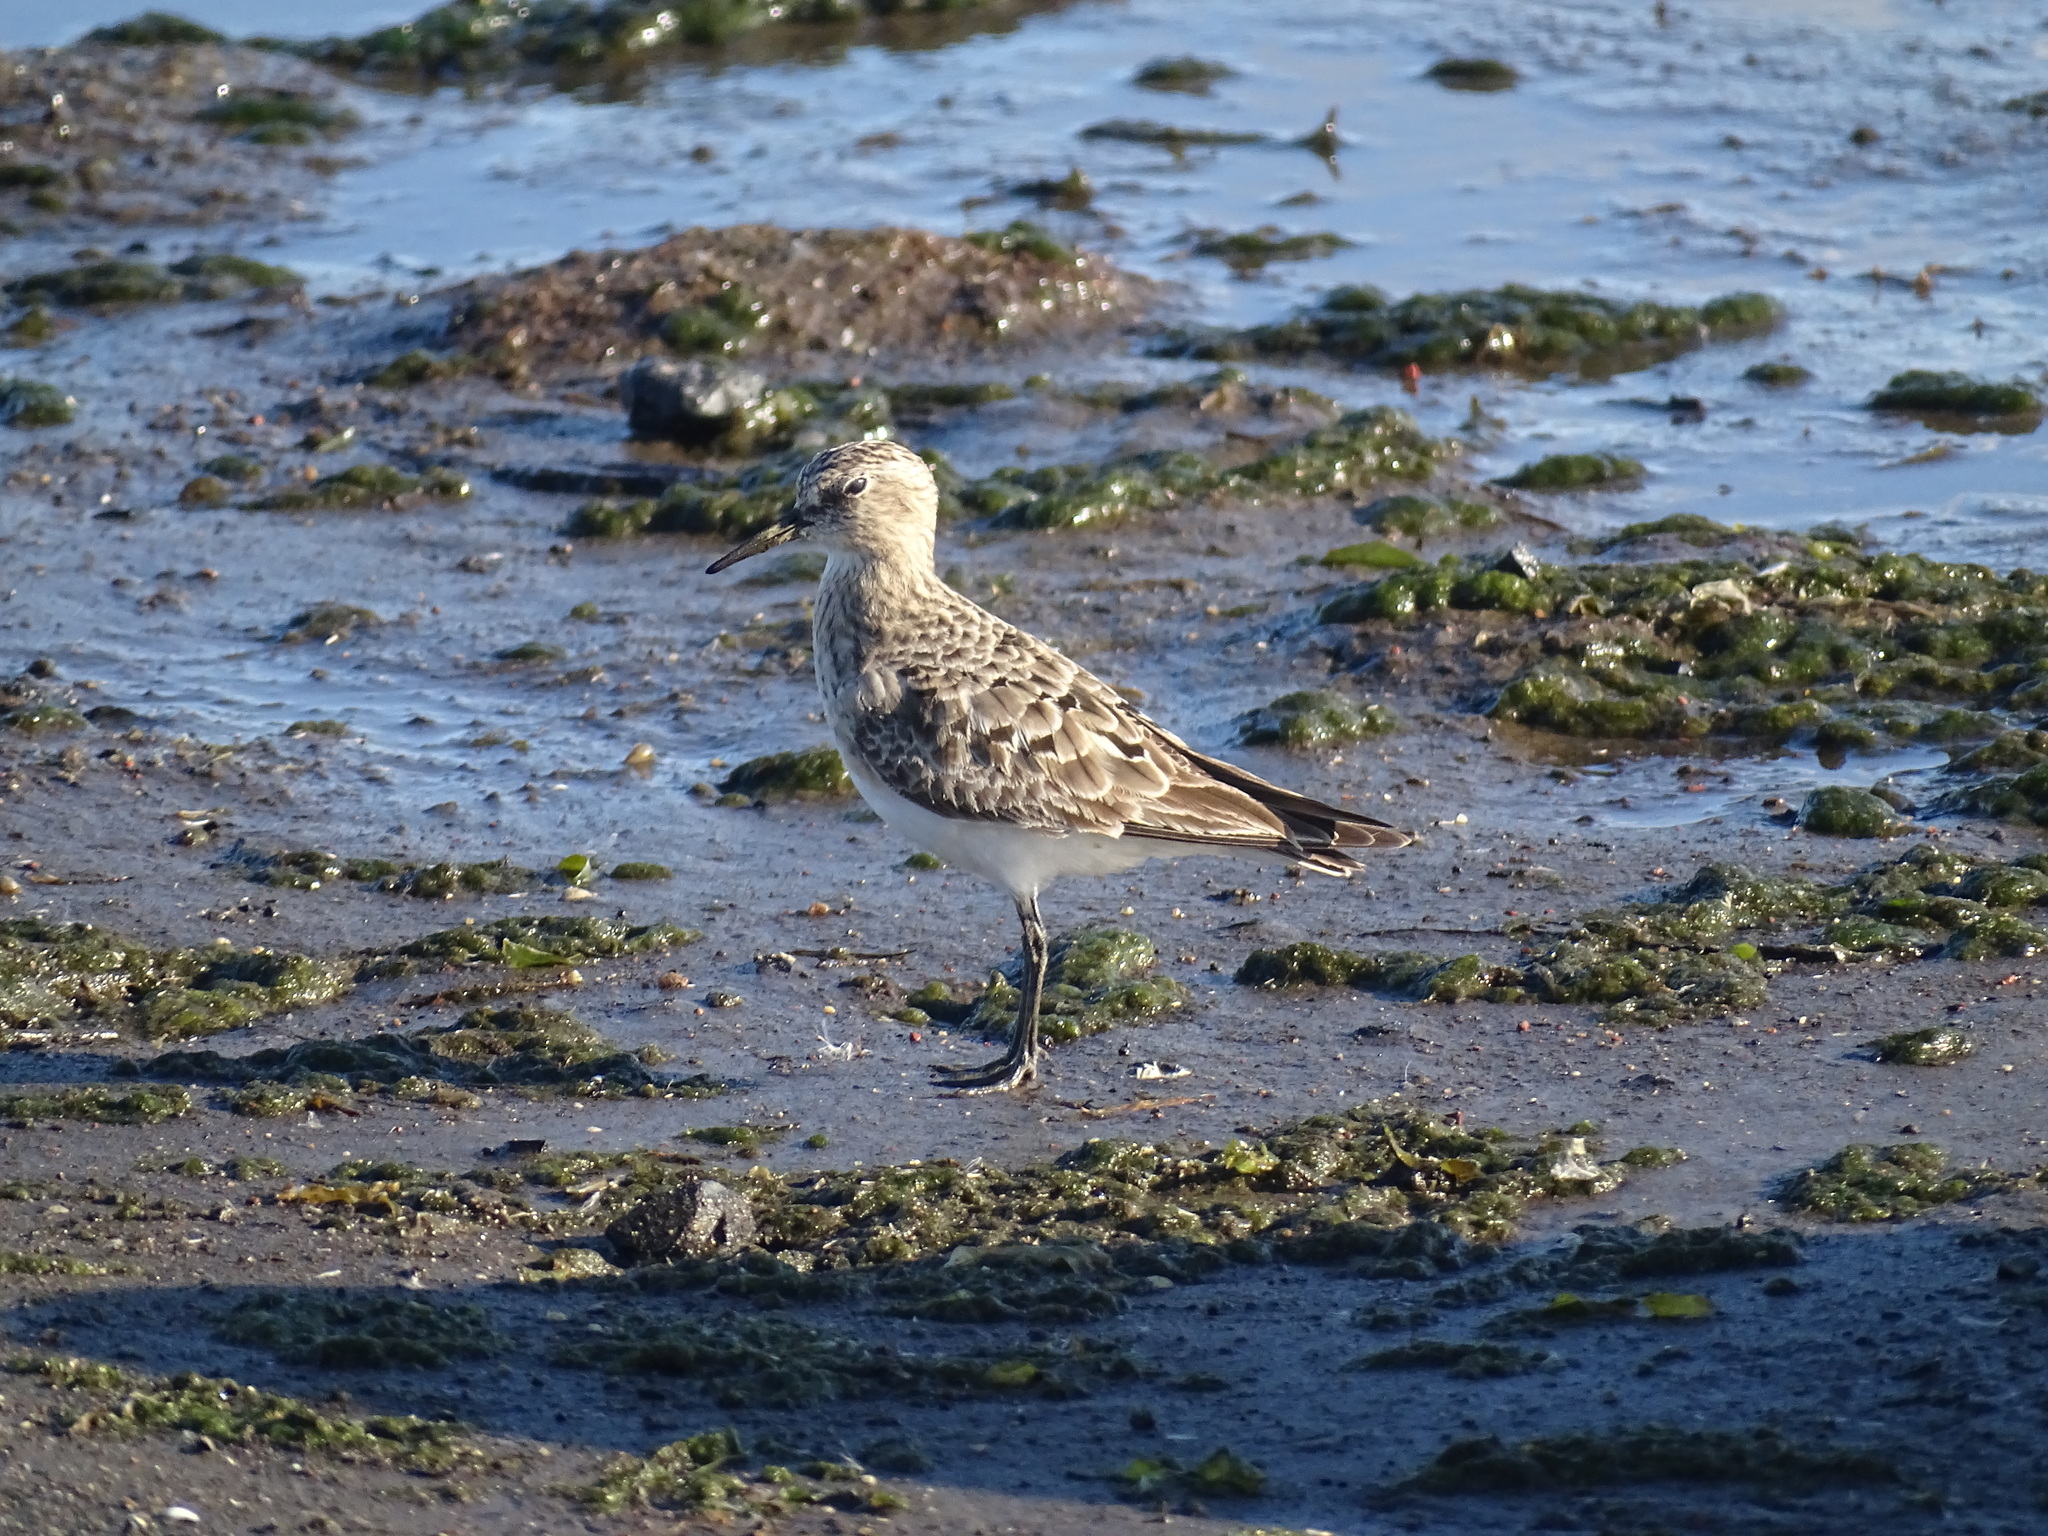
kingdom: Animalia
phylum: Chordata
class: Aves
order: Charadriiformes
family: Scolopacidae
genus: Calidris
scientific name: Calidris bairdii
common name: Baird's sandpiper
